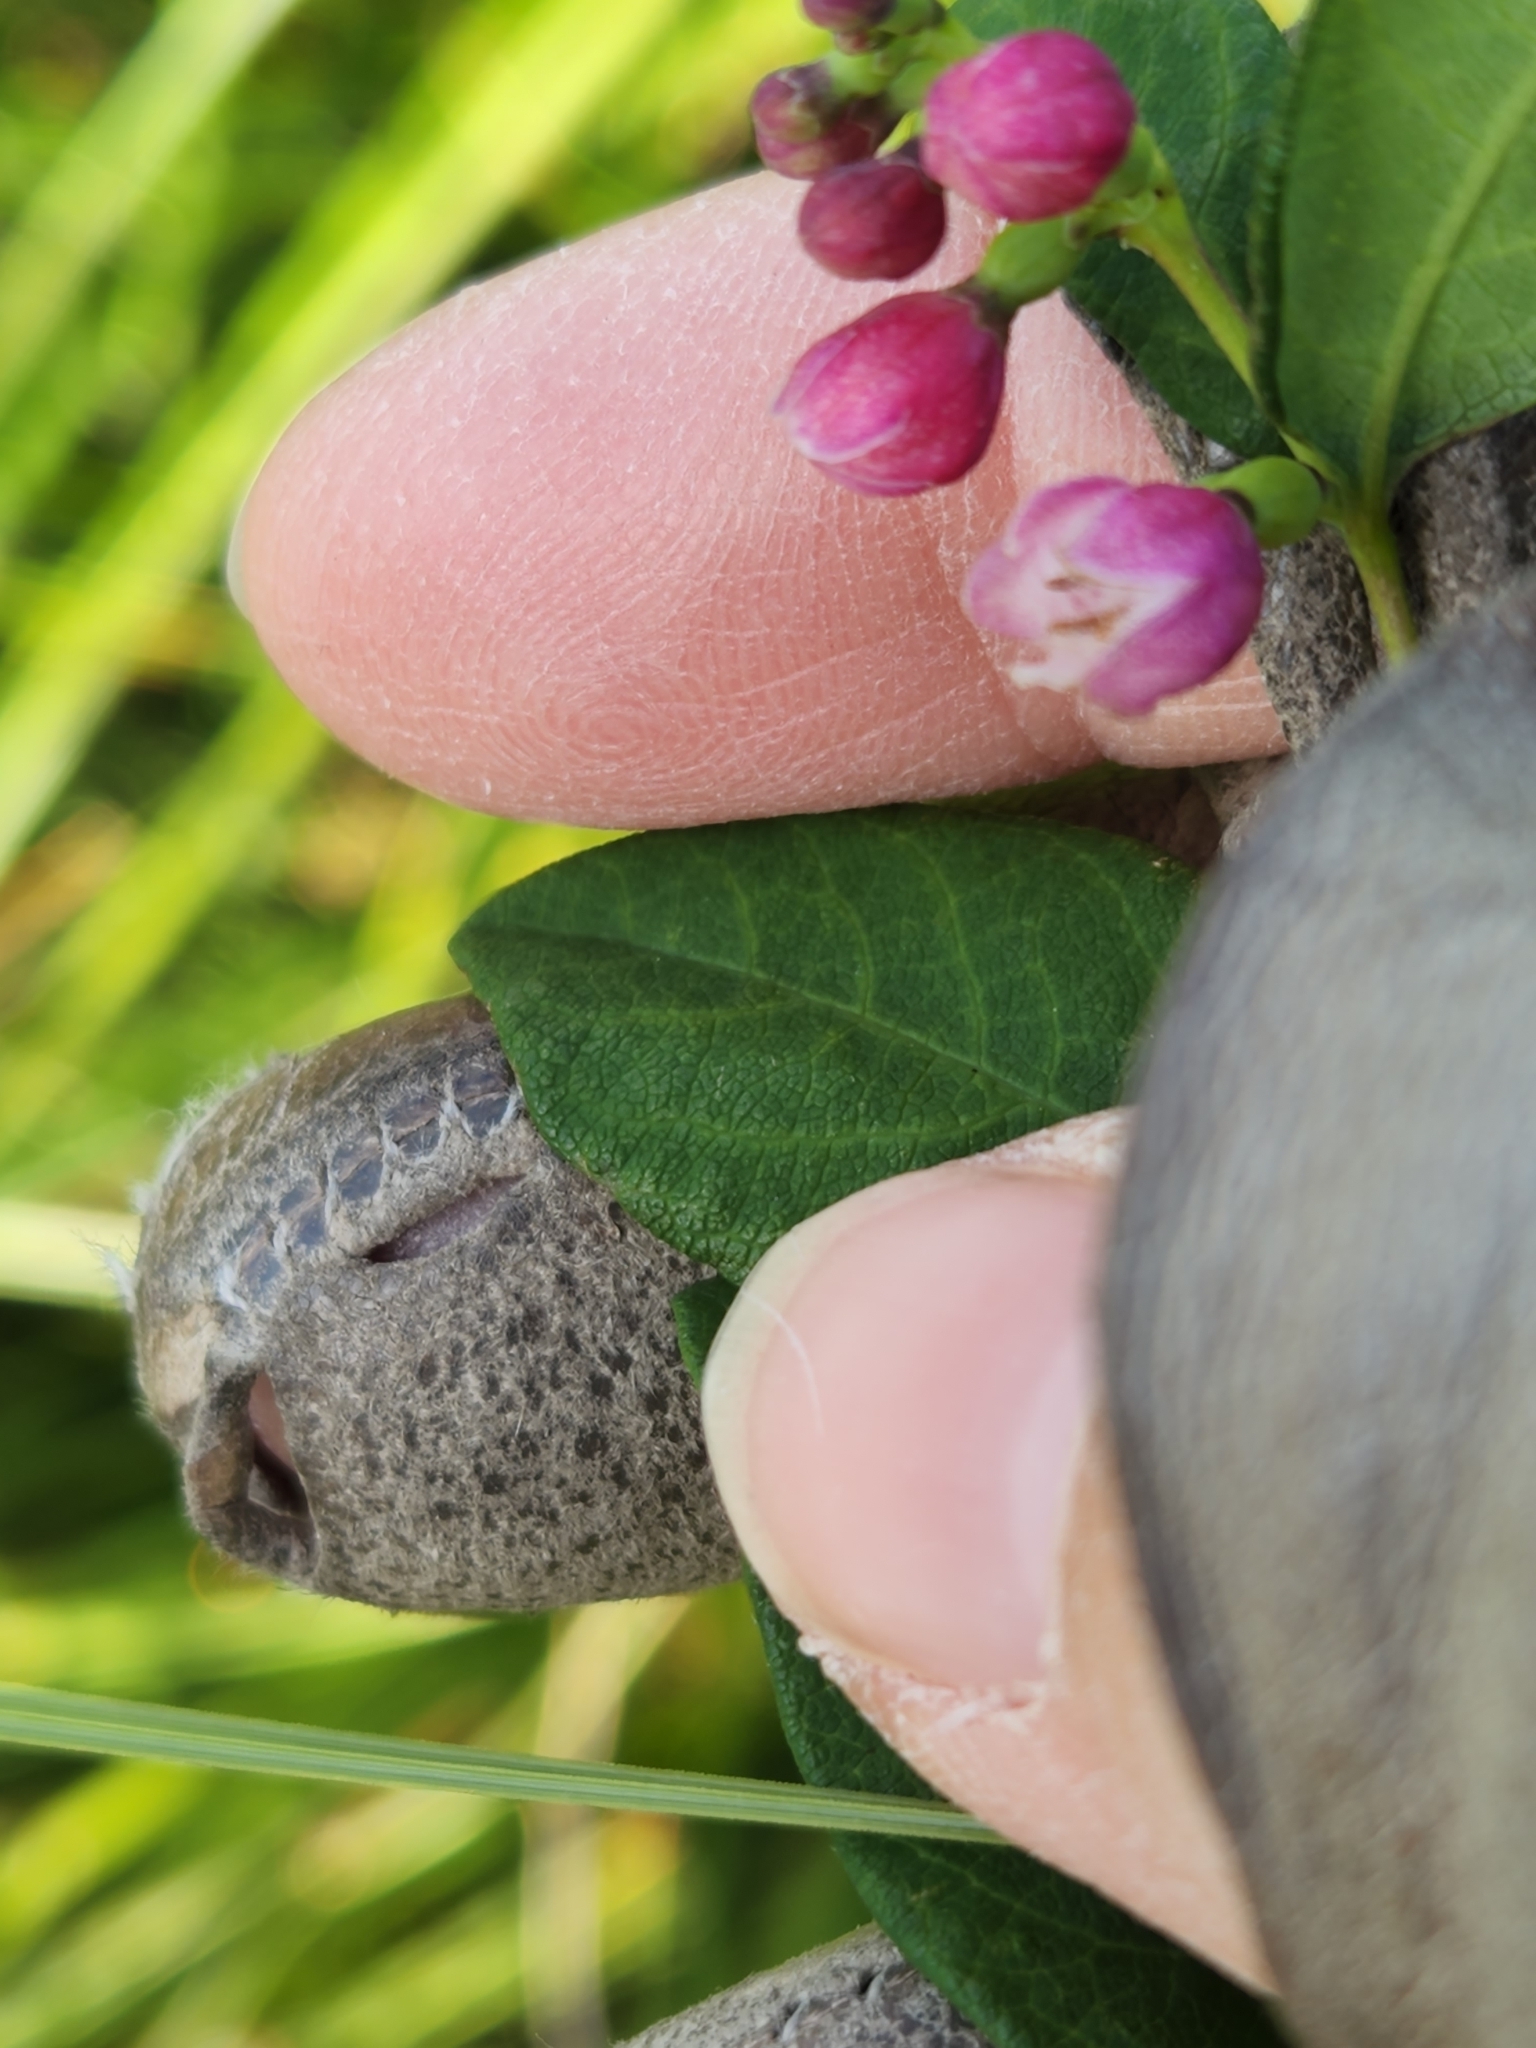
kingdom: Plantae
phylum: Tracheophyta
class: Magnoliopsida
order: Dipsacales
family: Caprifoliaceae
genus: Symphoricarpos
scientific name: Symphoricarpos albus
